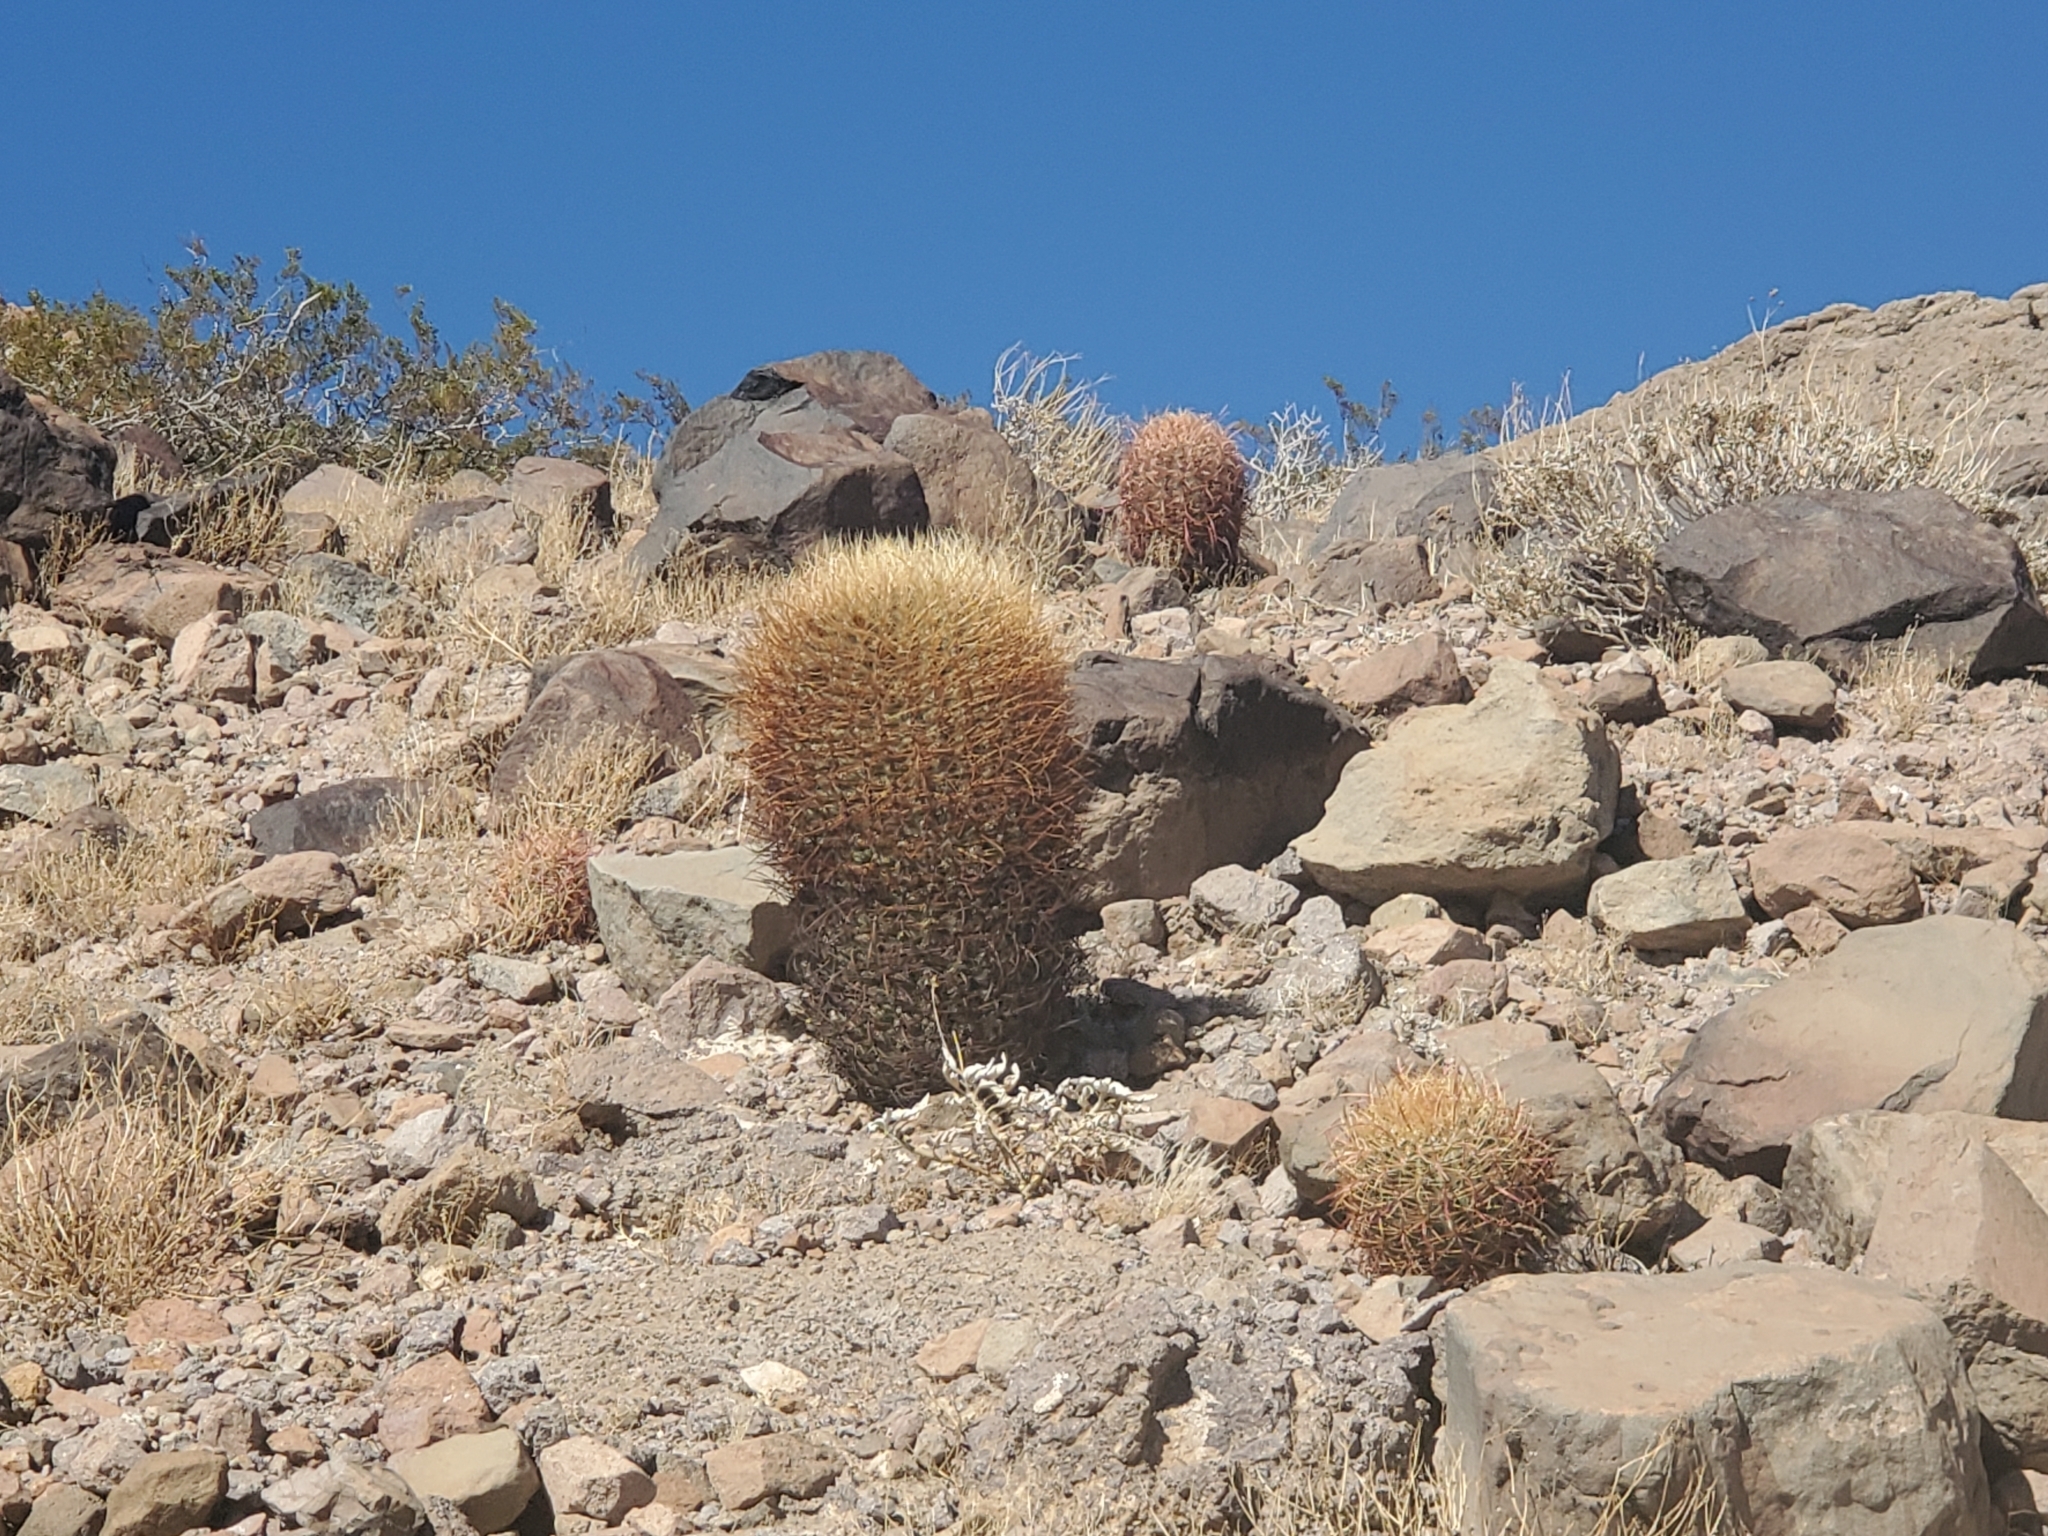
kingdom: Plantae
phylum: Tracheophyta
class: Magnoliopsida
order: Caryophyllales
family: Cactaceae
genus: Ferocactus
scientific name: Ferocactus cylindraceus
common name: California barrel cactus
